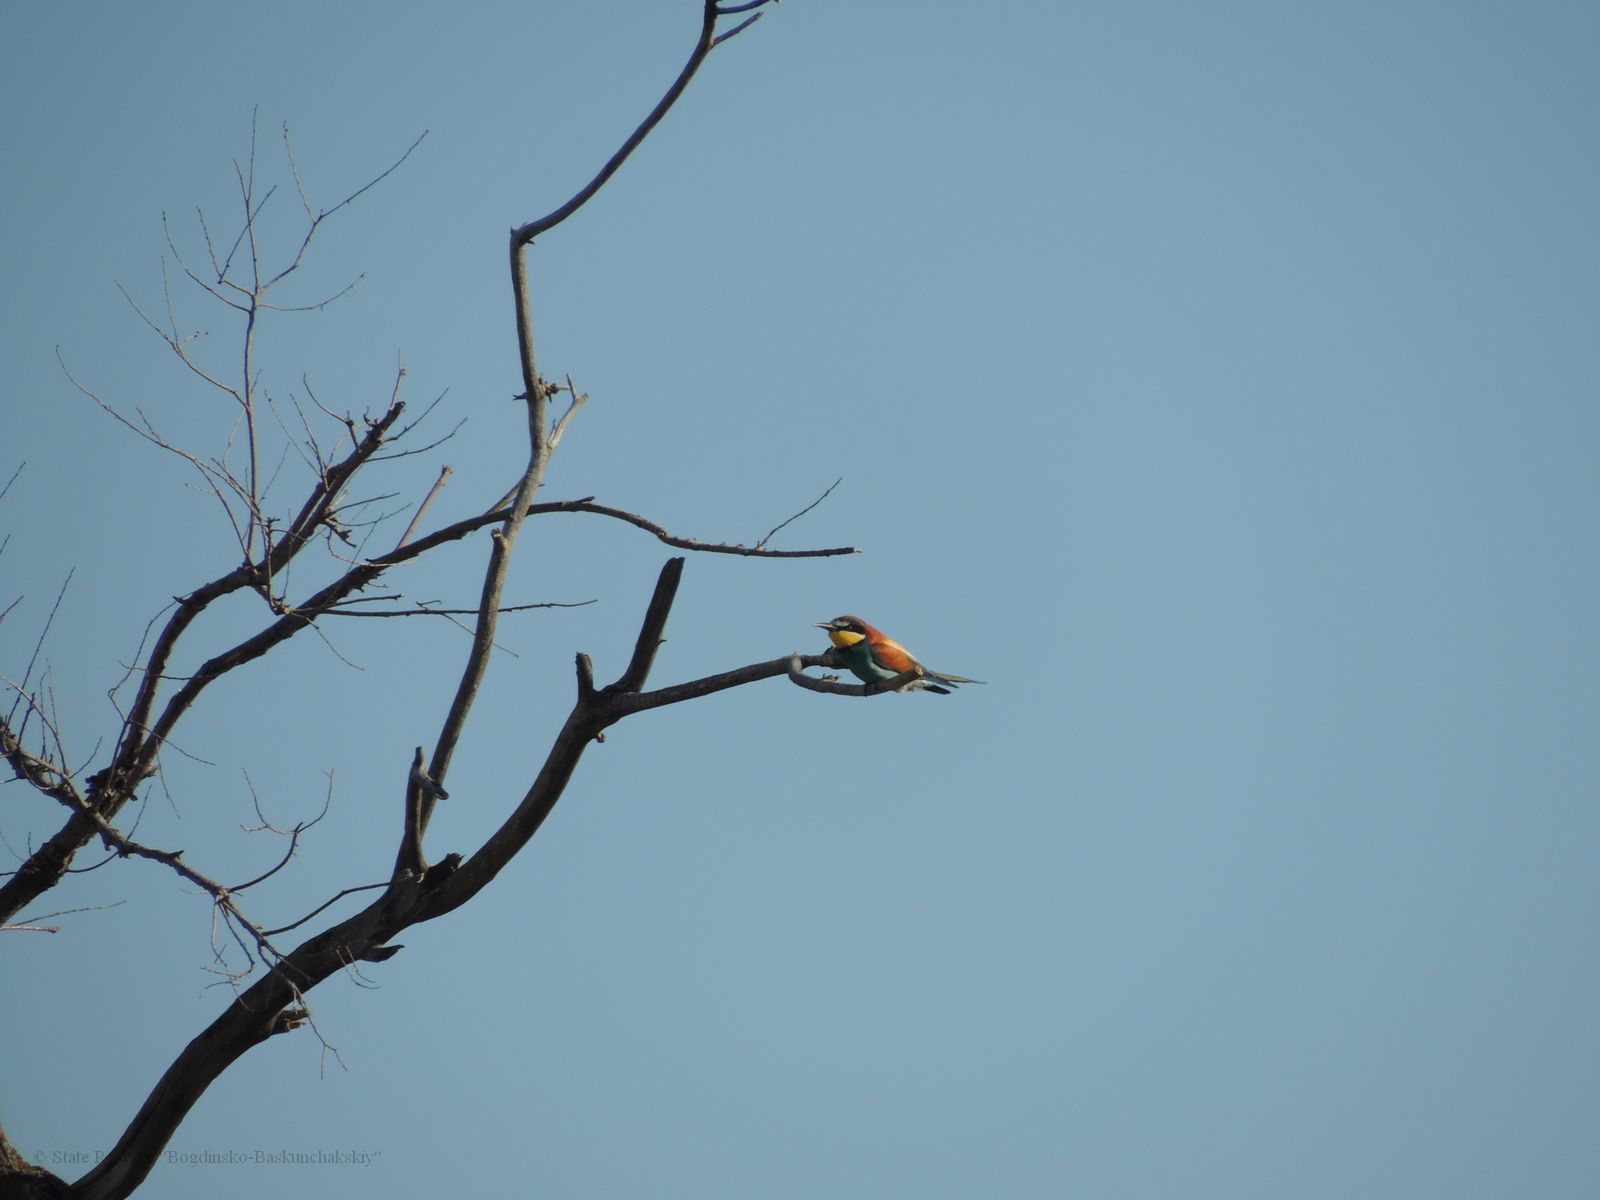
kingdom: Animalia
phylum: Chordata
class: Aves
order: Coraciiformes
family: Meropidae
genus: Merops
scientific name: Merops apiaster
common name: European bee-eater
